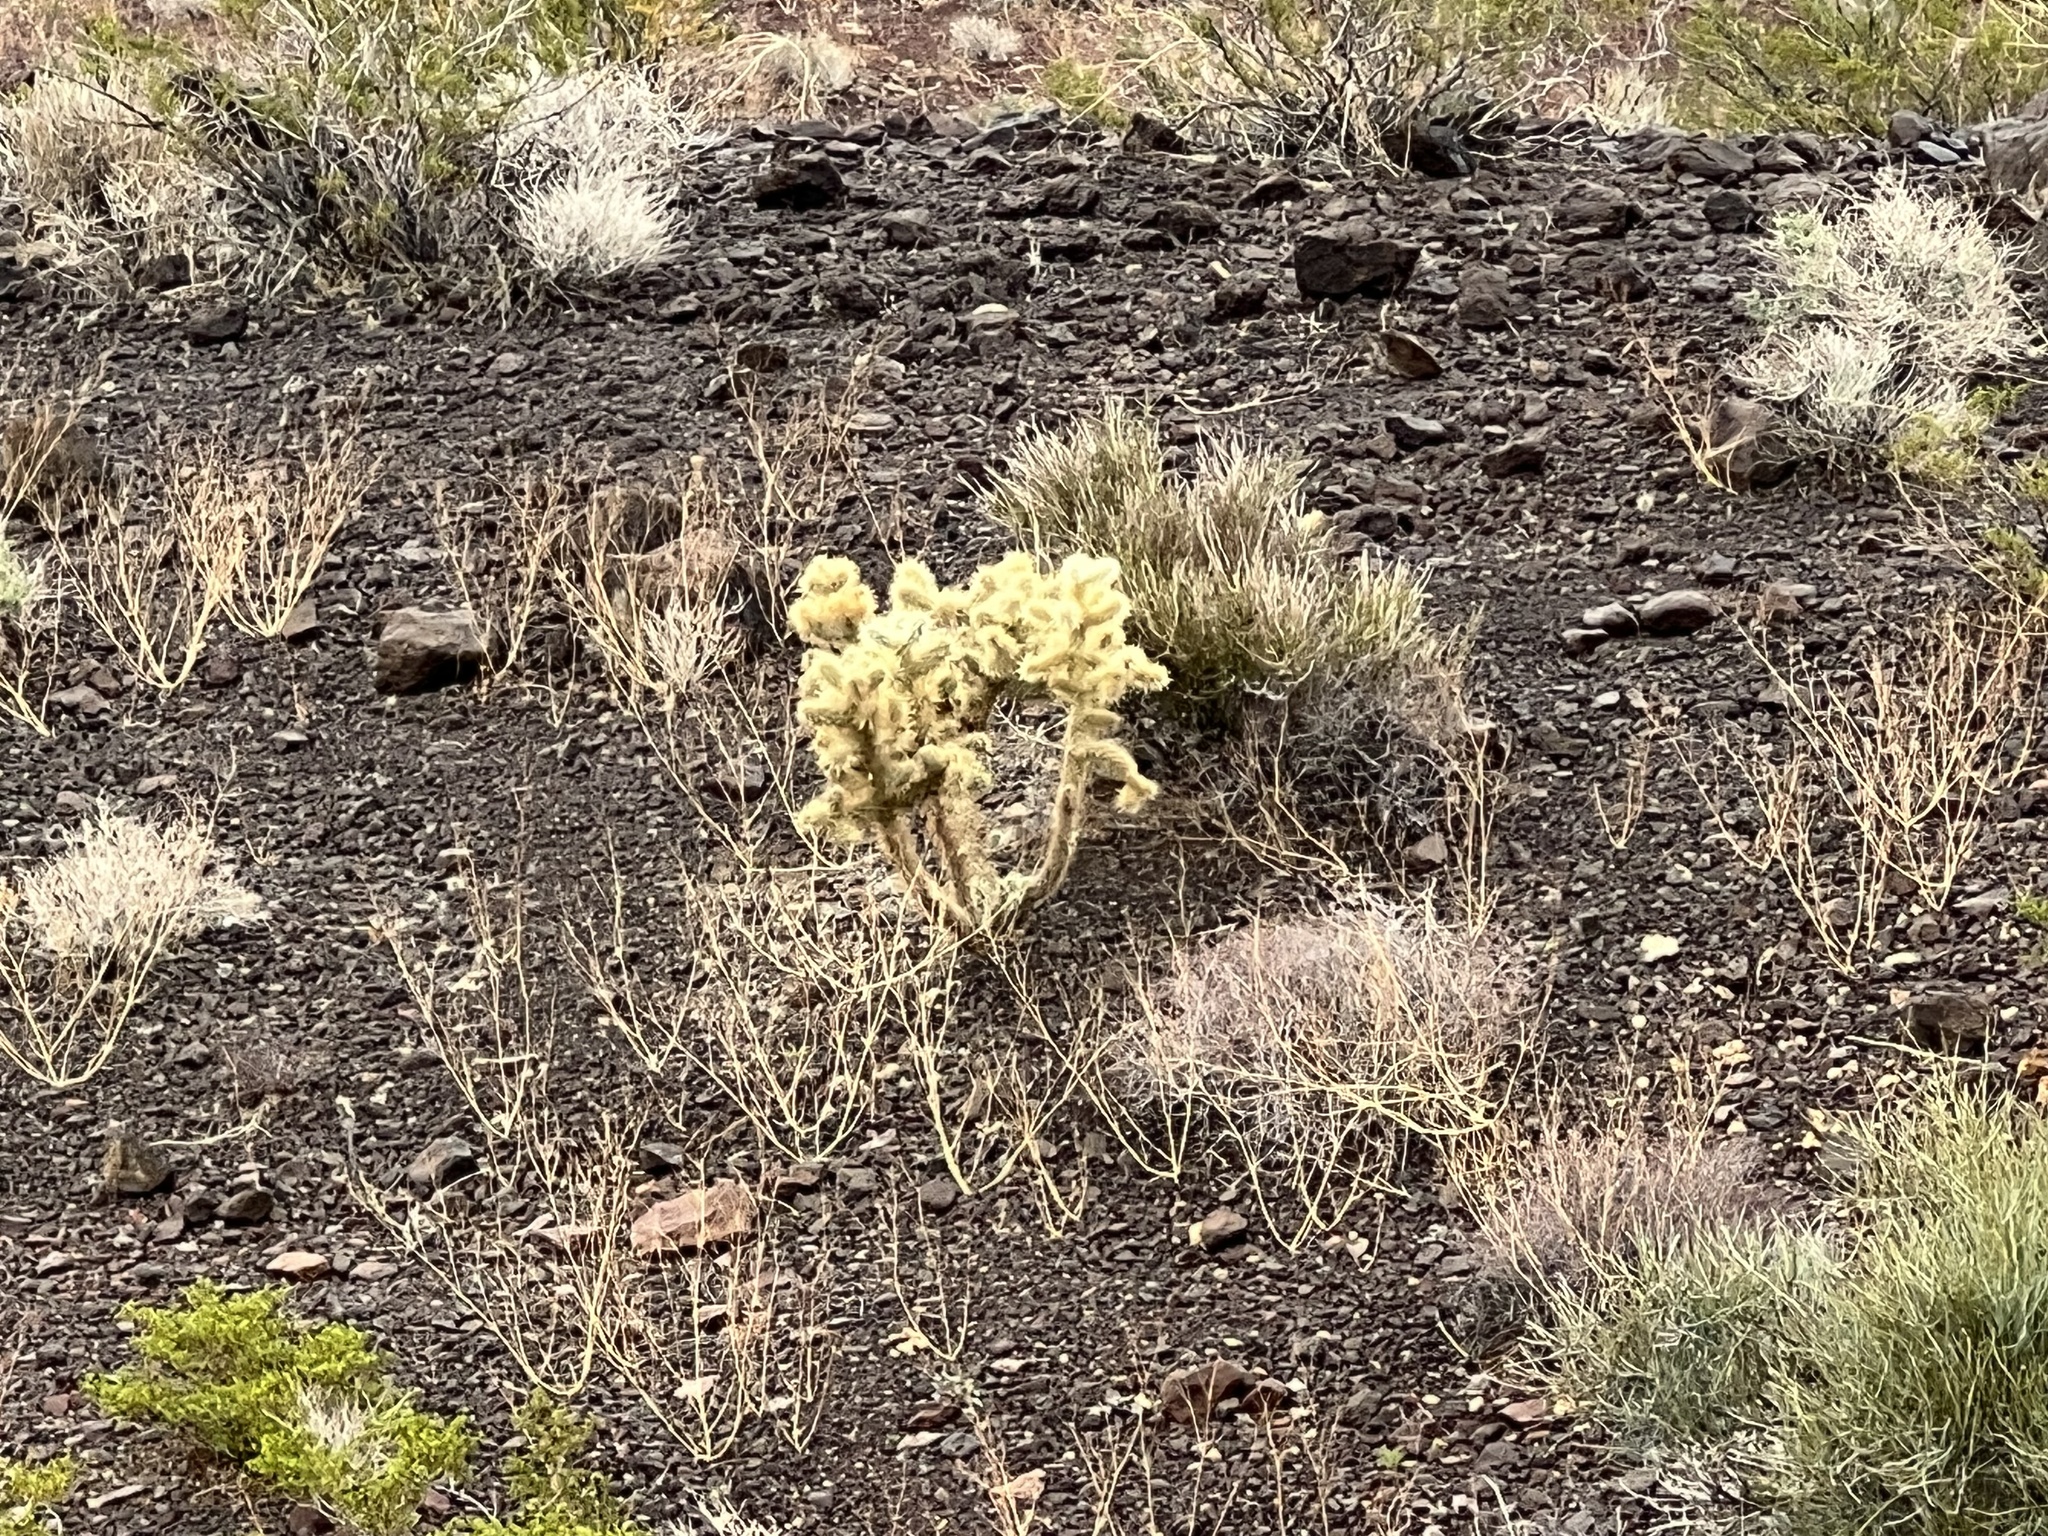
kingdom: Plantae
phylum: Tracheophyta
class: Magnoliopsida
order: Caryophyllales
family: Cactaceae
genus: Cylindropuntia
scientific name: Cylindropuntia echinocarpa
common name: Ground cholla
